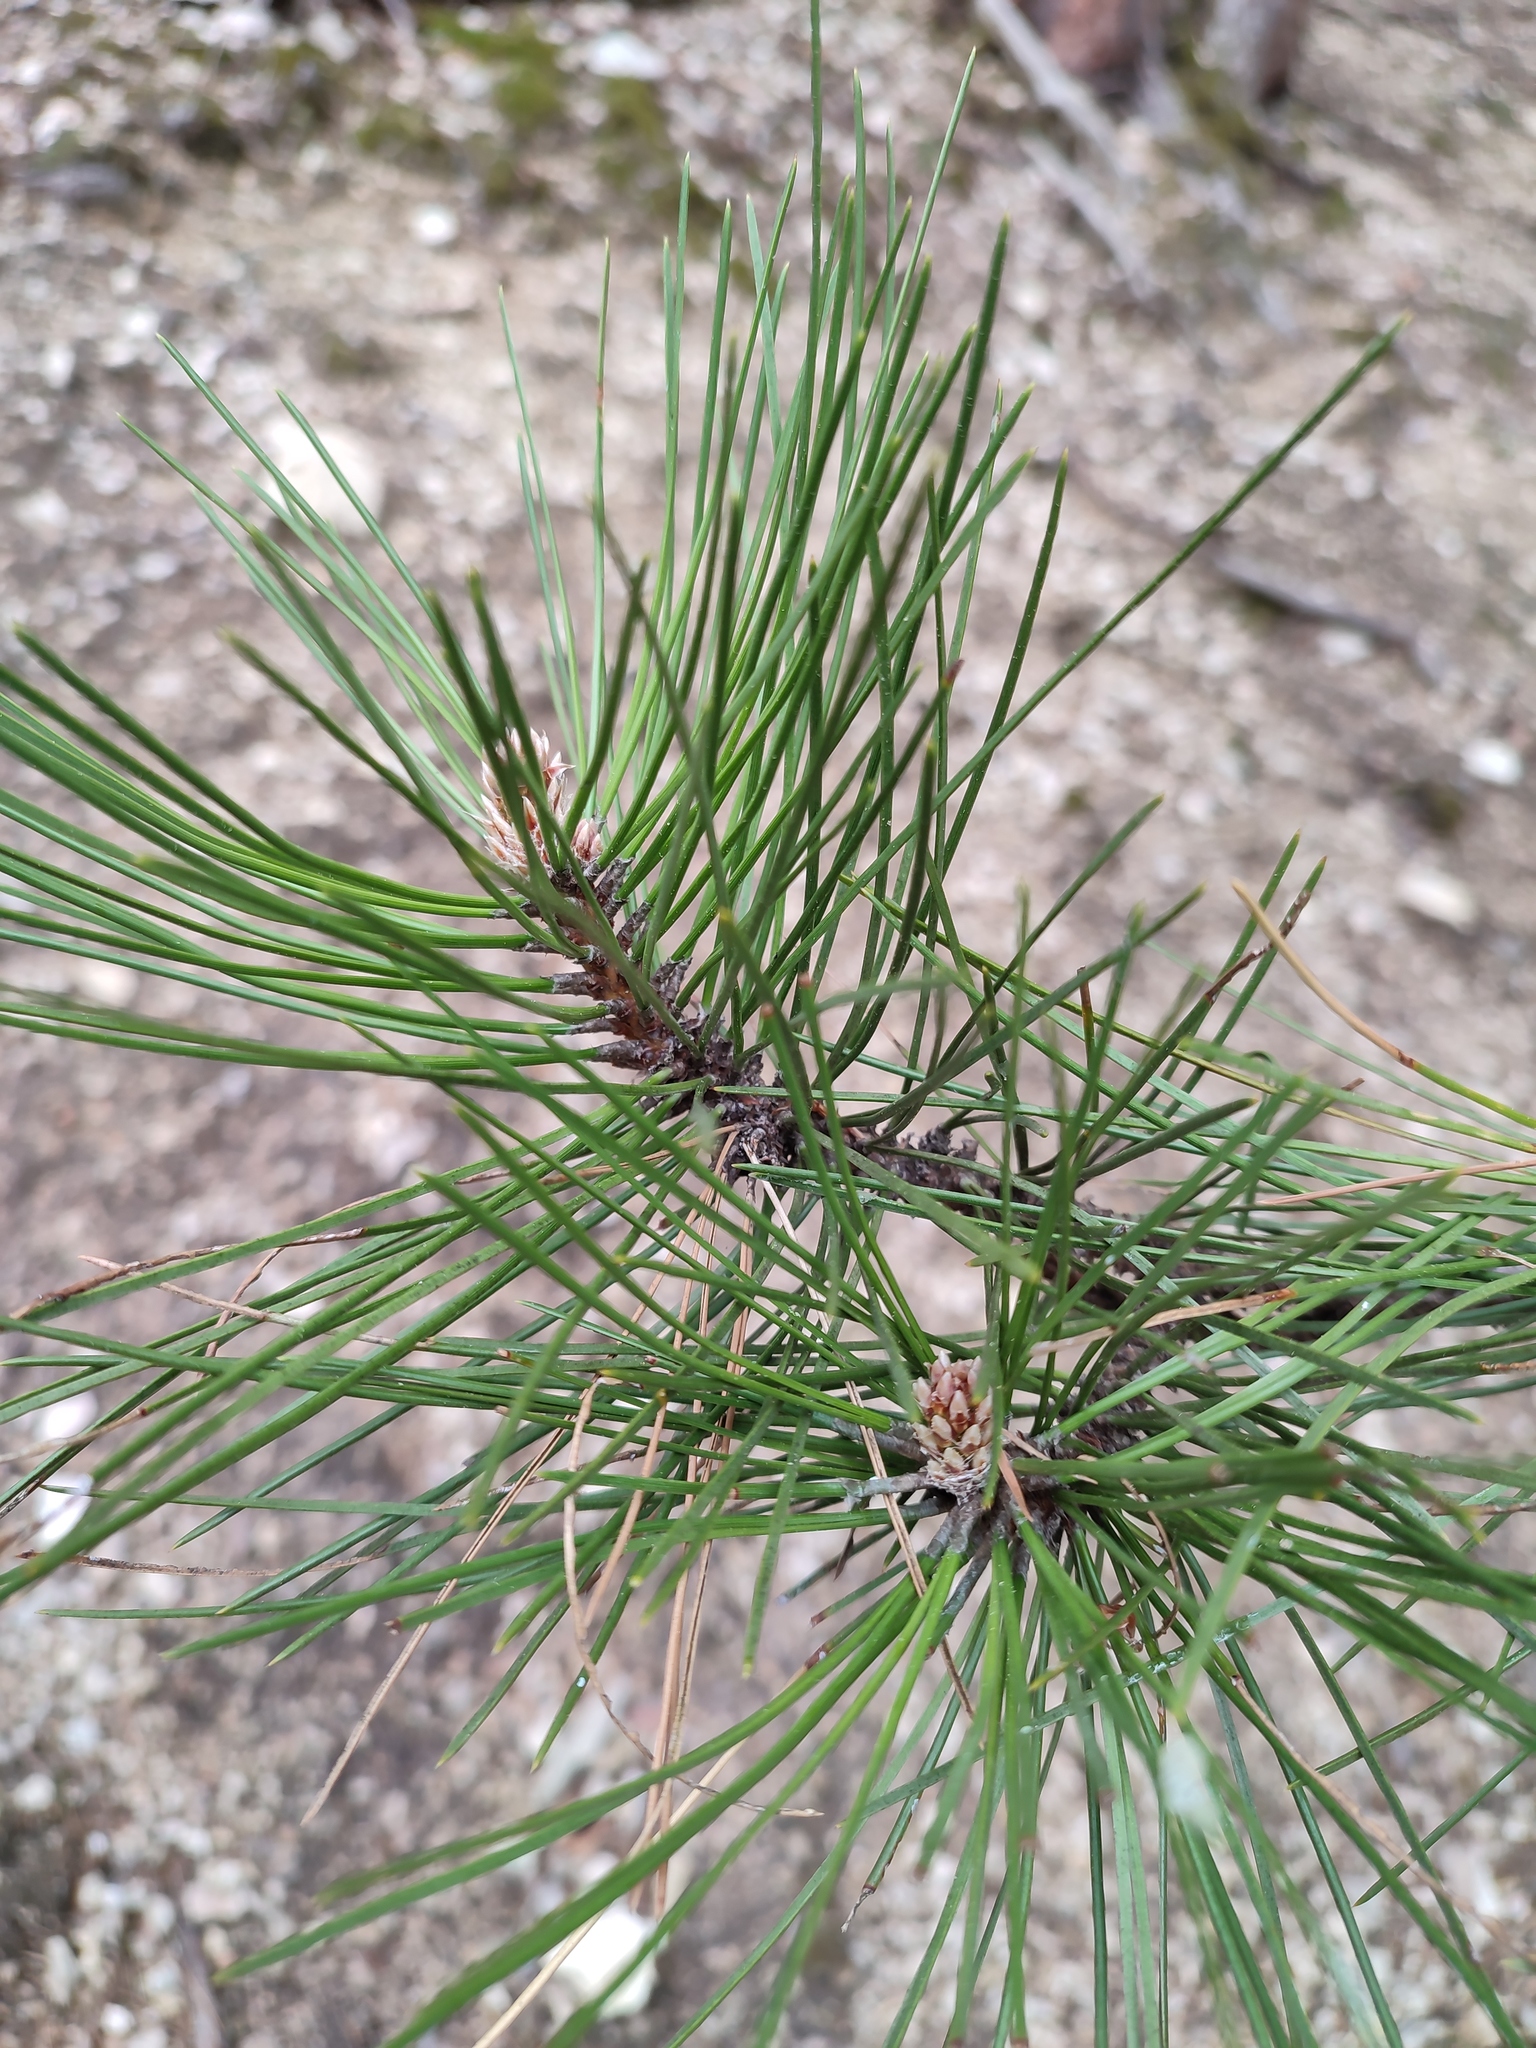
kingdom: Plantae
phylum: Tracheophyta
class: Pinopsida
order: Pinales
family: Pinaceae
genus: Pinus
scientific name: Pinus nigra
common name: Austrian pine
